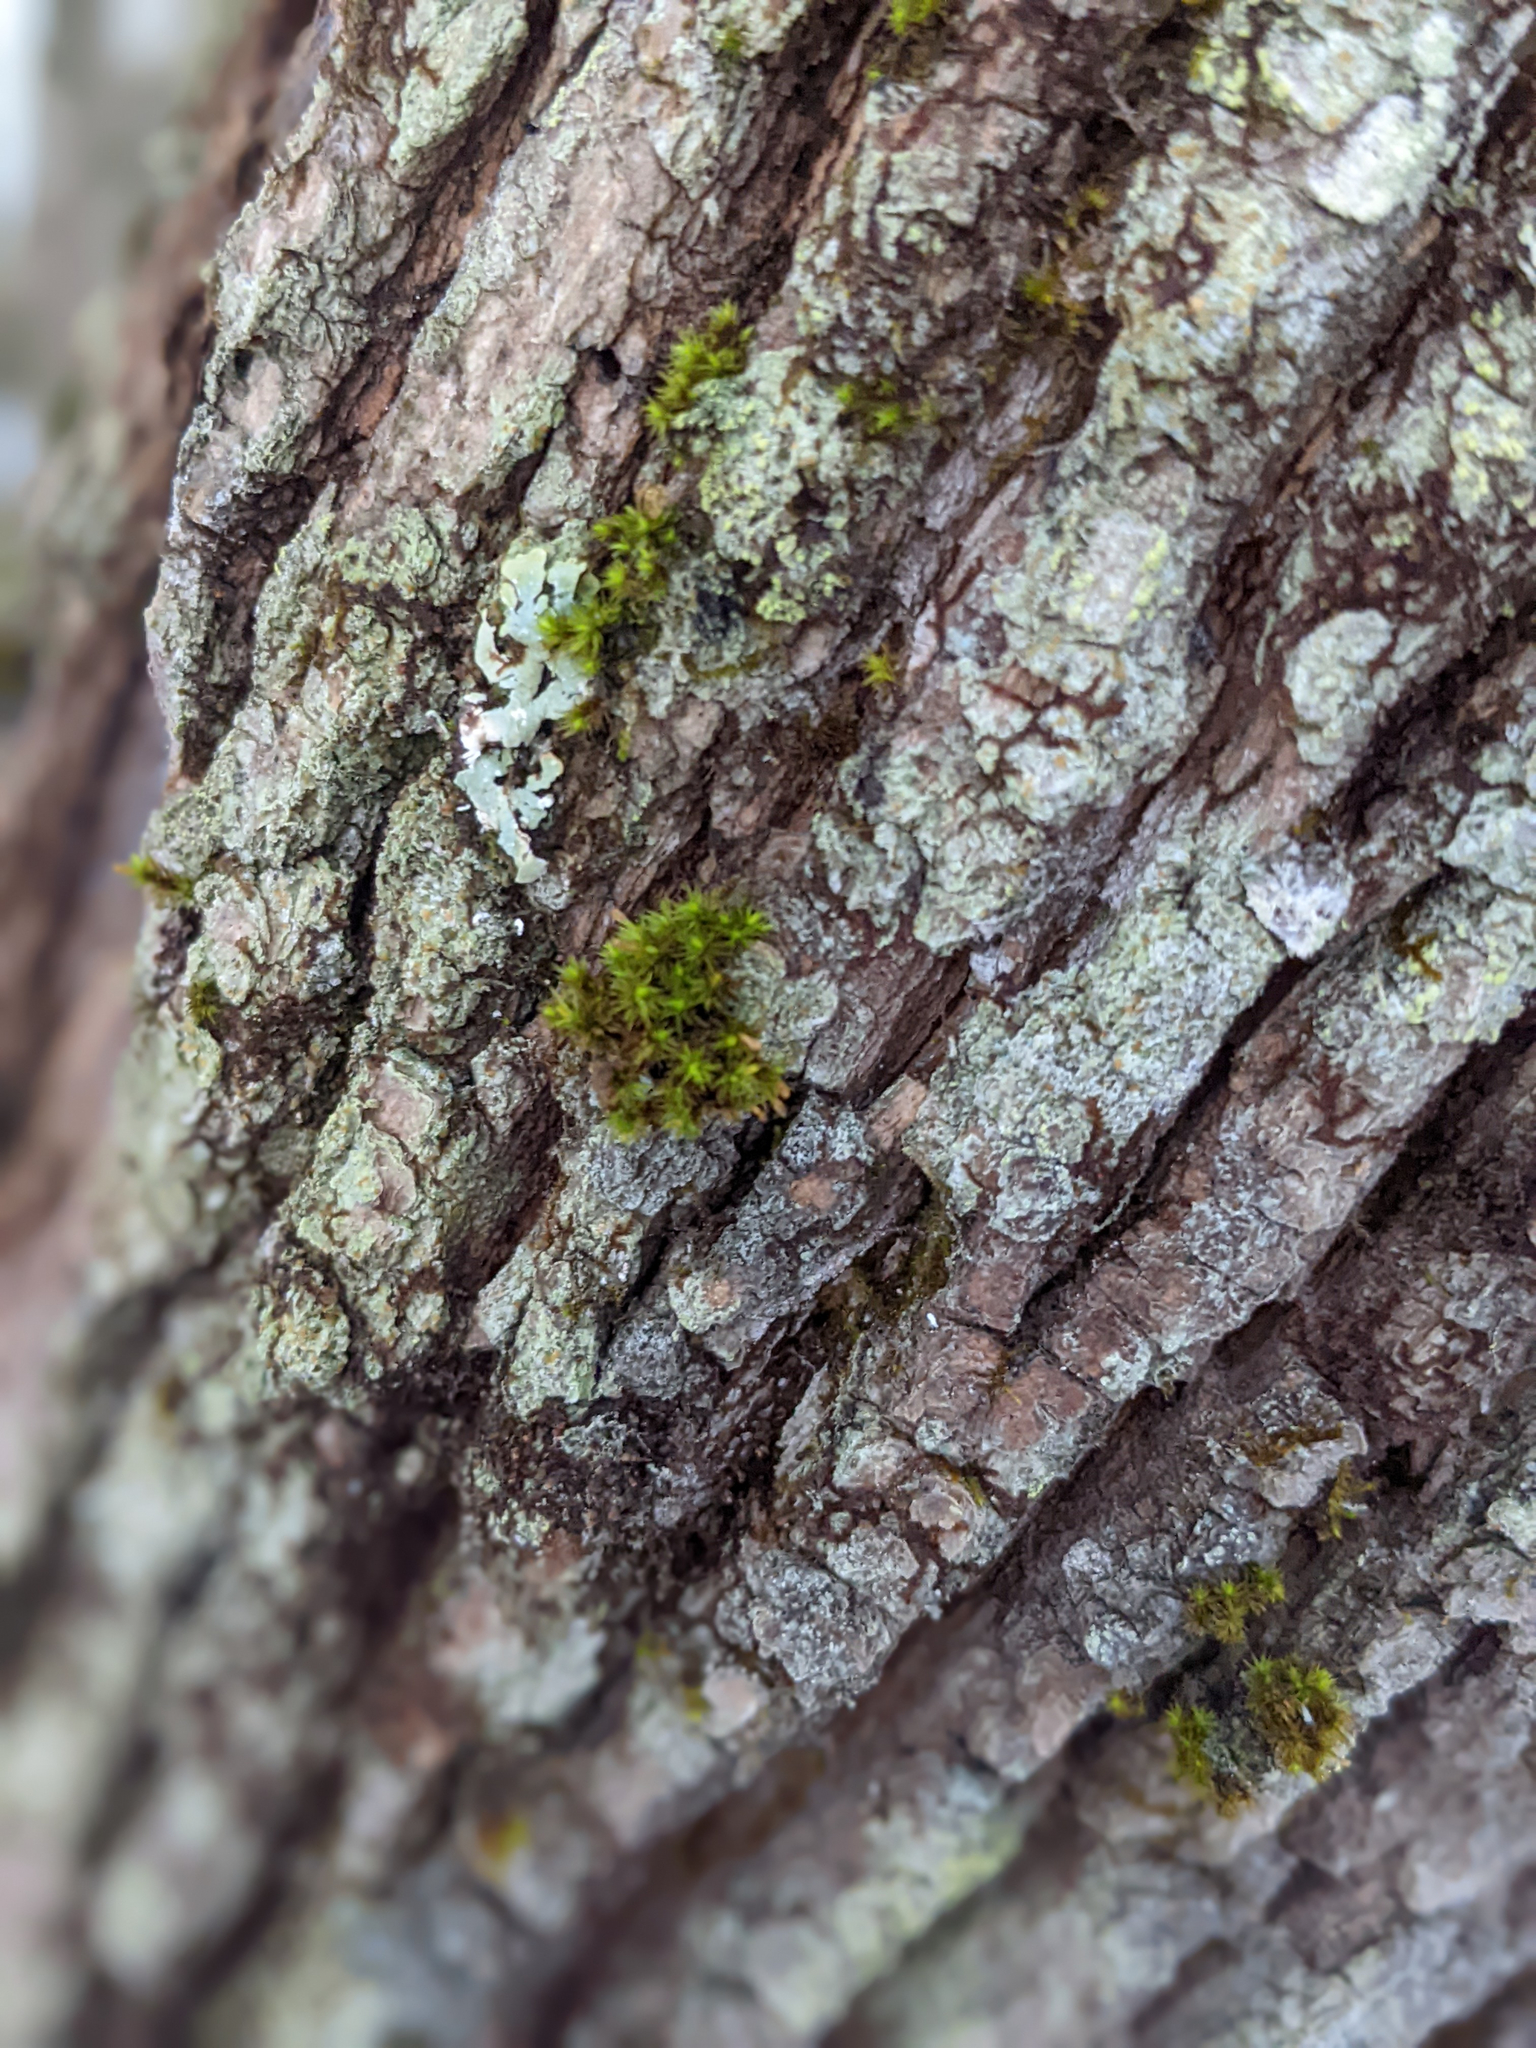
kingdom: Plantae
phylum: Bryophyta
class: Bryopsida
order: Orthotrichales
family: Orthotrichaceae
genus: Ulota
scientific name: Ulota crispa
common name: Crisped pincushion moss
